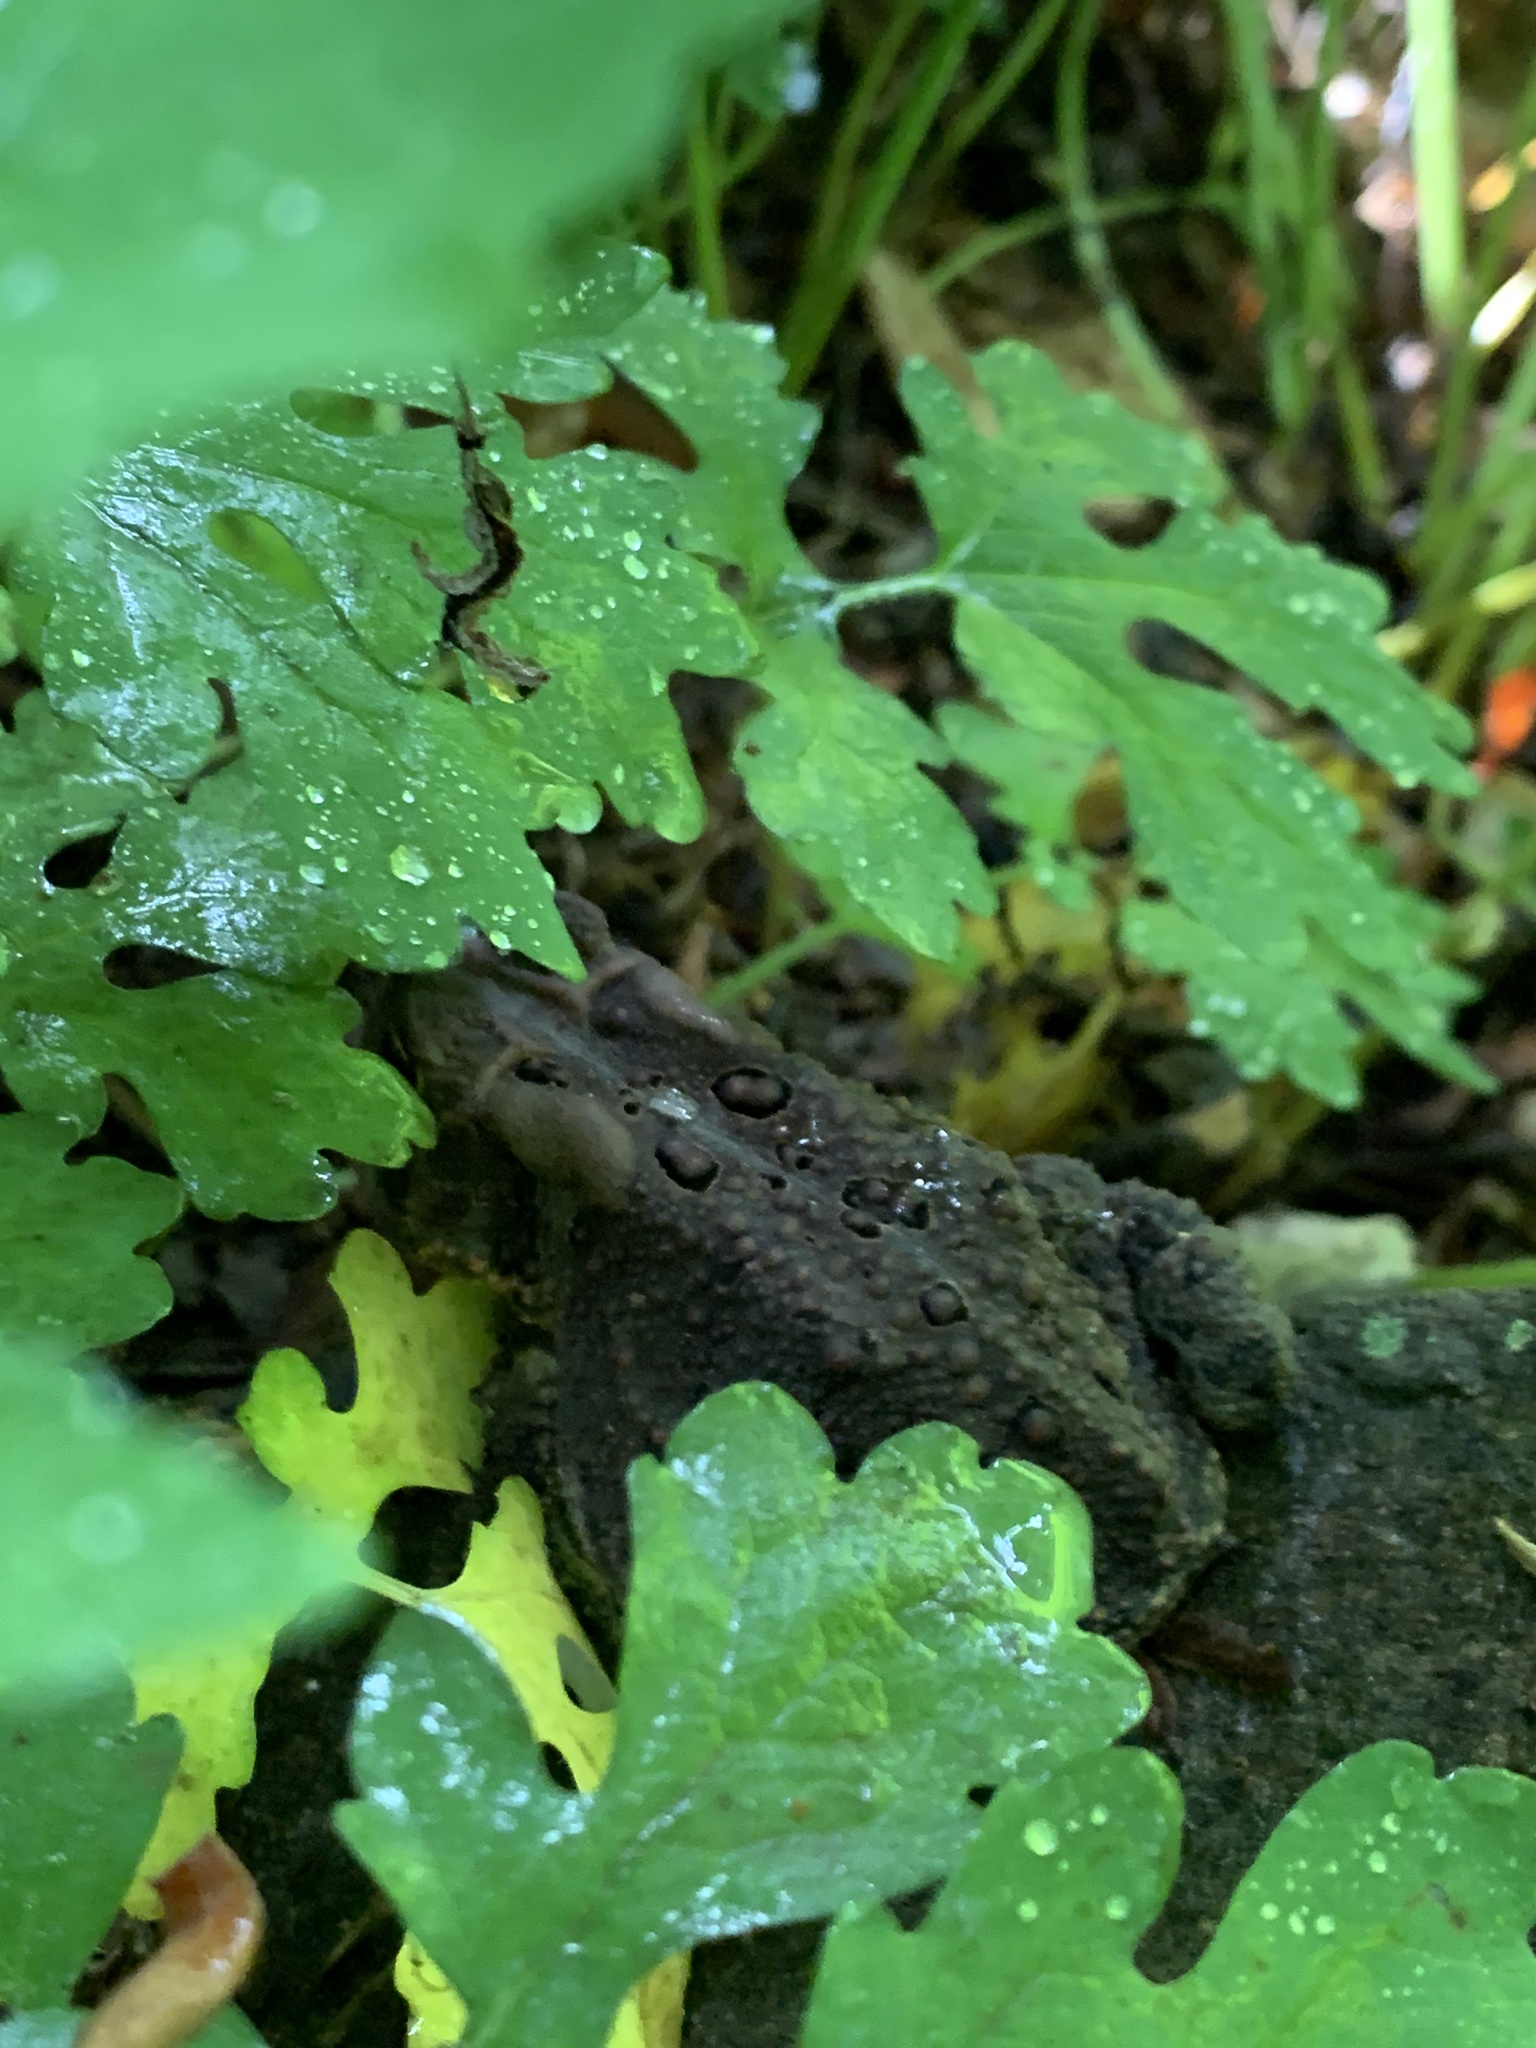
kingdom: Plantae
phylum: Tracheophyta
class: Magnoliopsida
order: Ranunculales
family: Papaveraceae
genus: Stylophorum
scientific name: Stylophorum diphyllum
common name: Celandine poppy
